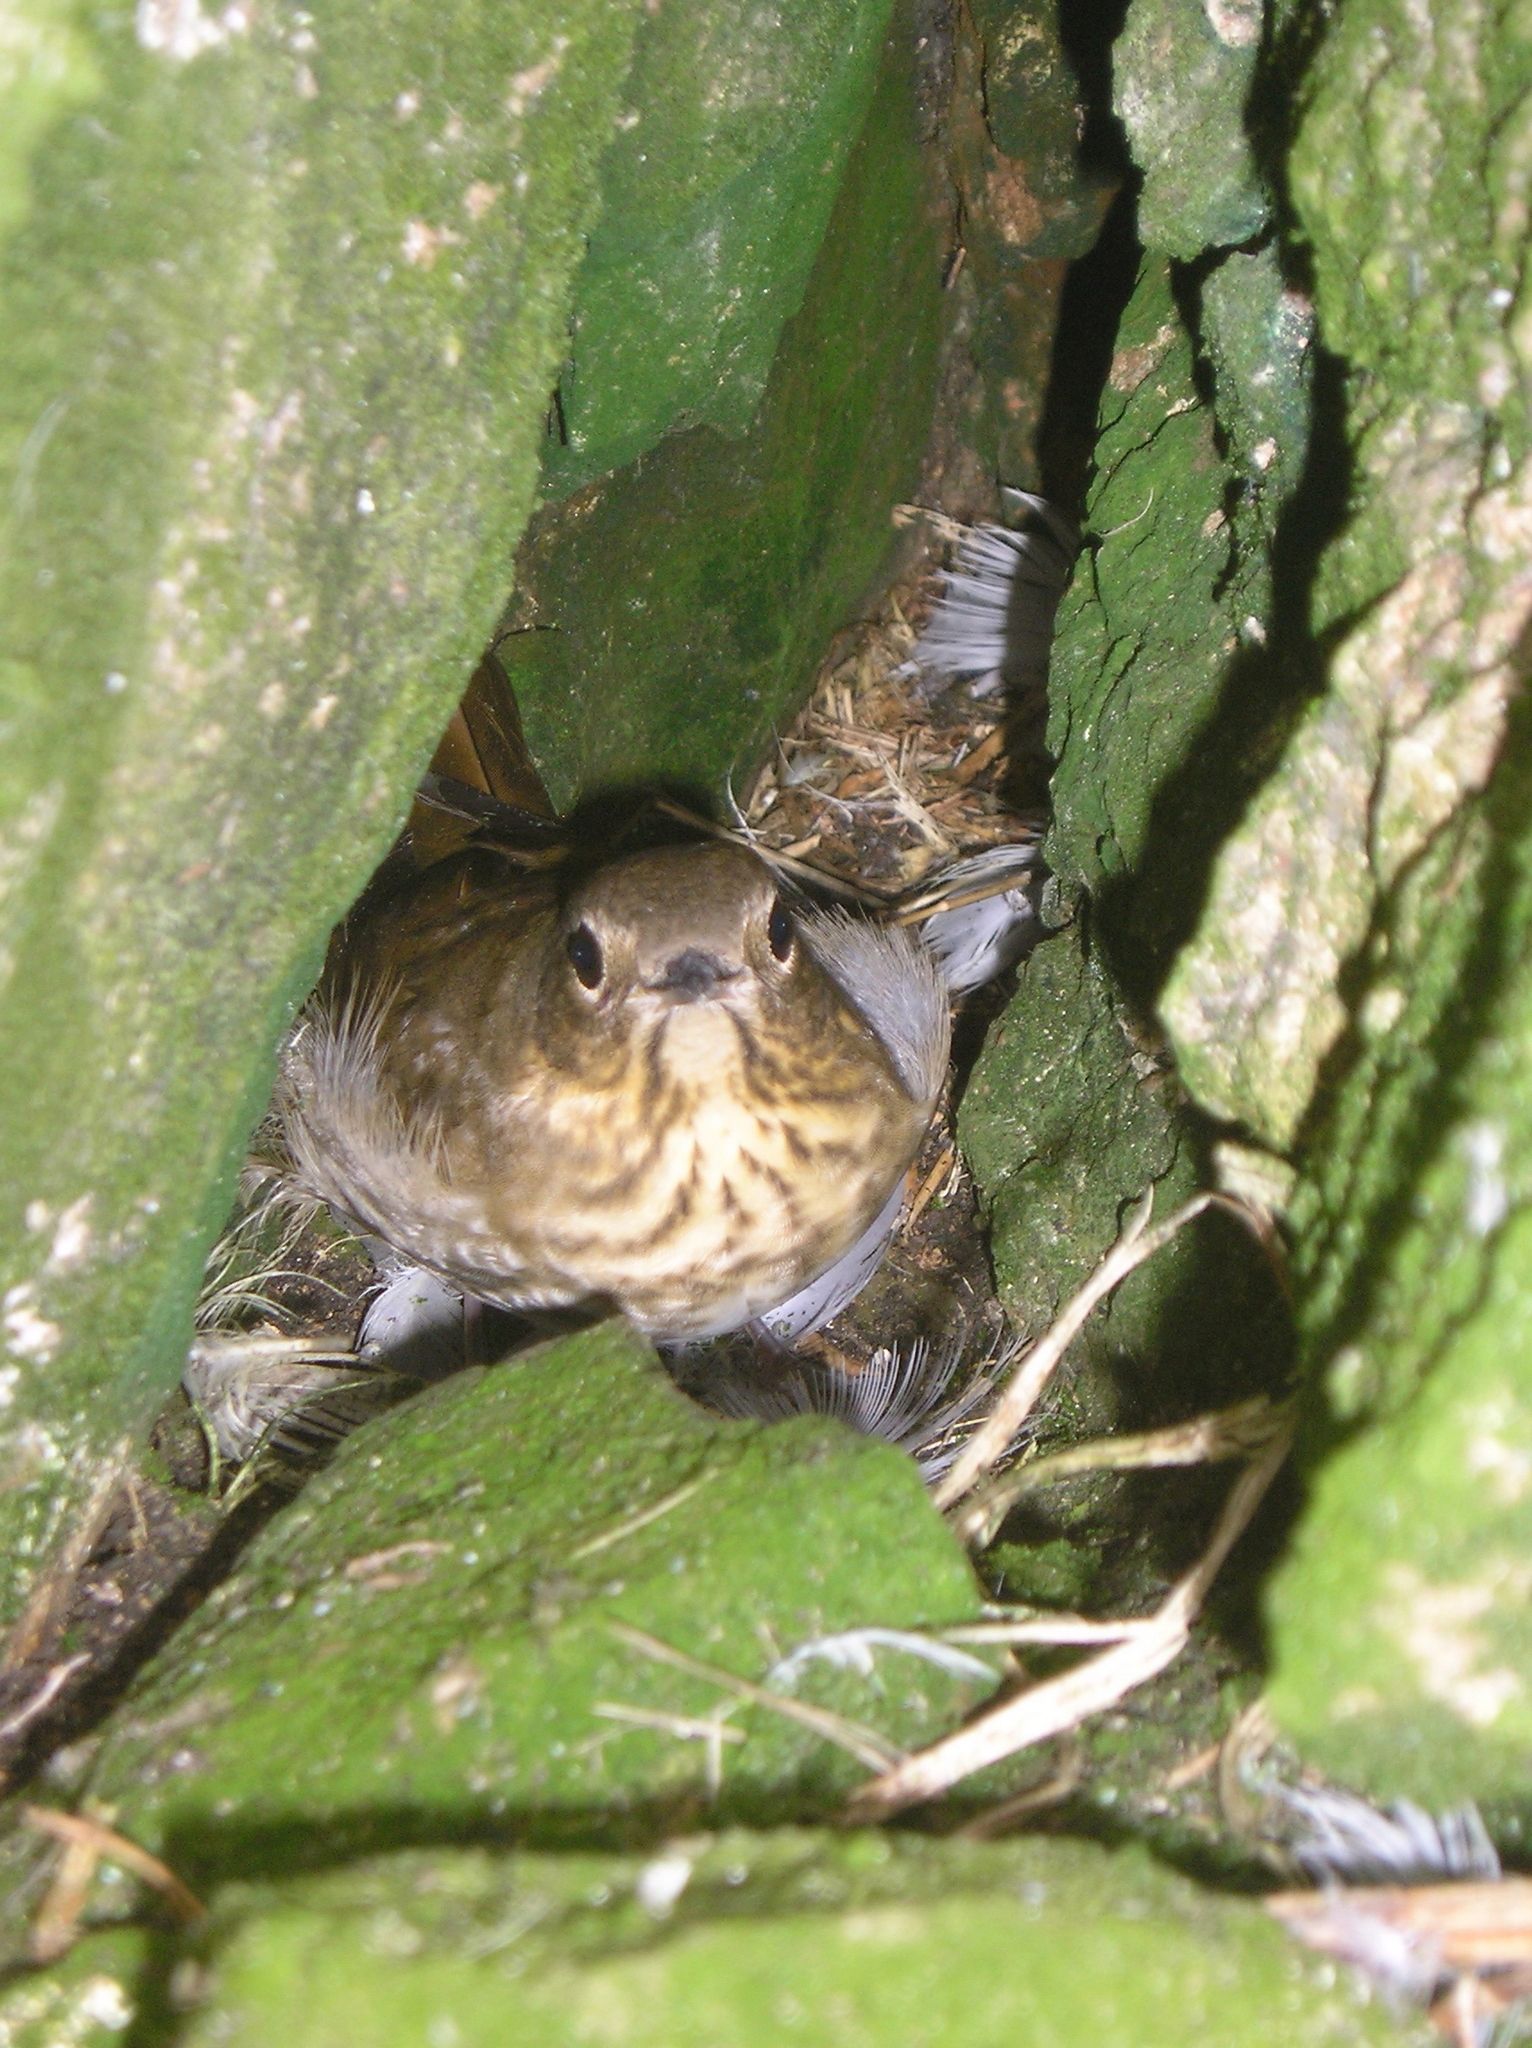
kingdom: Animalia
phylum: Chordata
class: Aves
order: Passeriformes
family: Turdidae
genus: Catharus
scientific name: Catharus ustulatus
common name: Swainson's thrush
